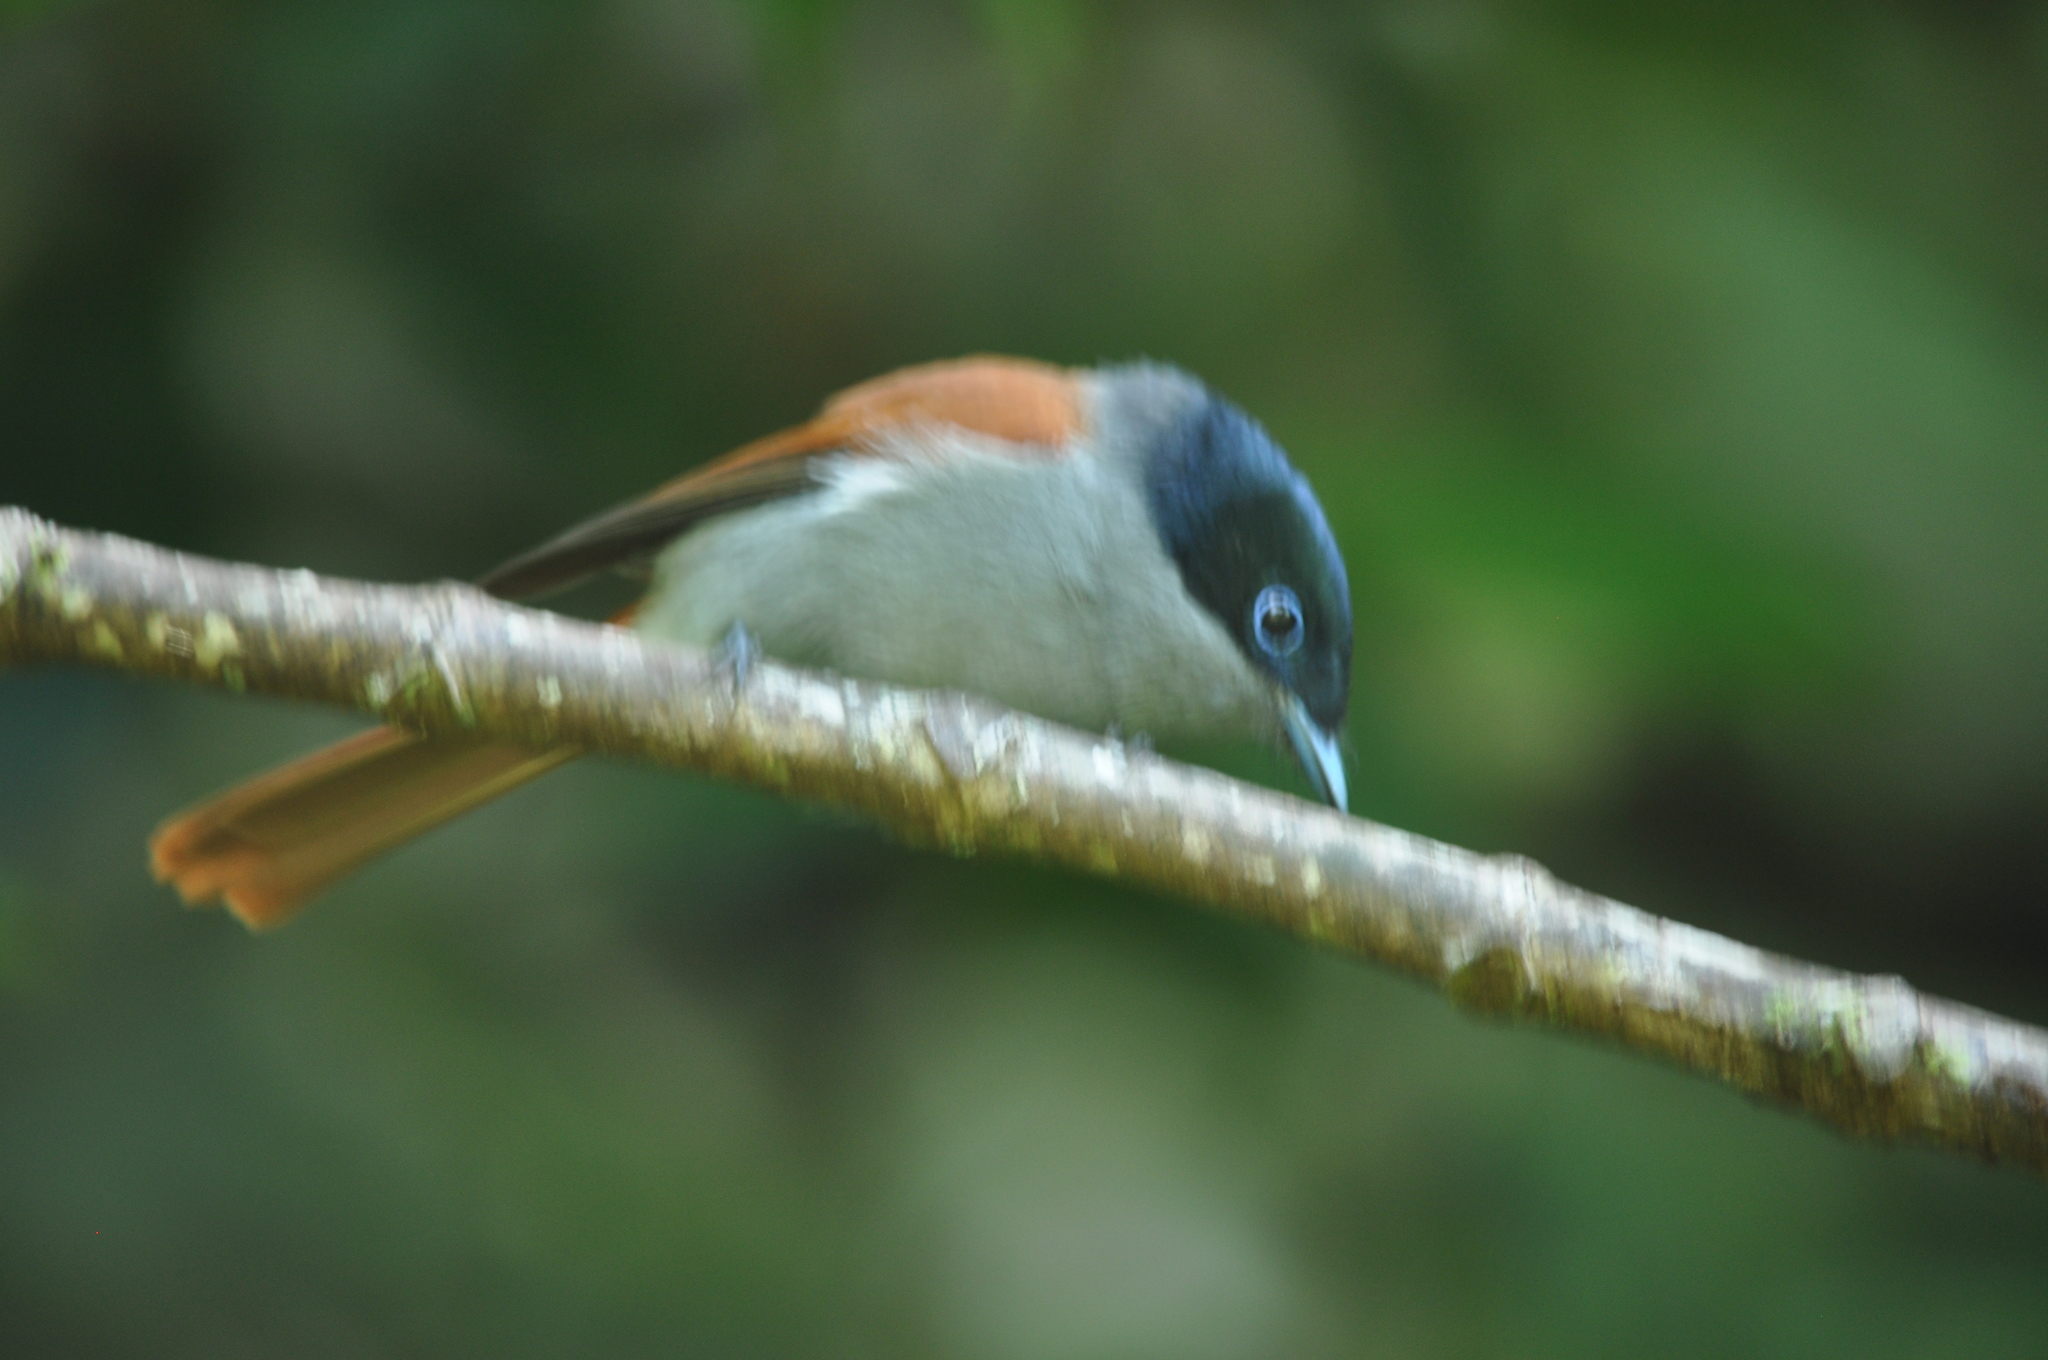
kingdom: Animalia
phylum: Chordata
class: Aves
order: Passeriformes
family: Monarchidae
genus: Terpsiphone
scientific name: Terpsiphone bourbonnensis
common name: Mascarene paradise flycatcher
